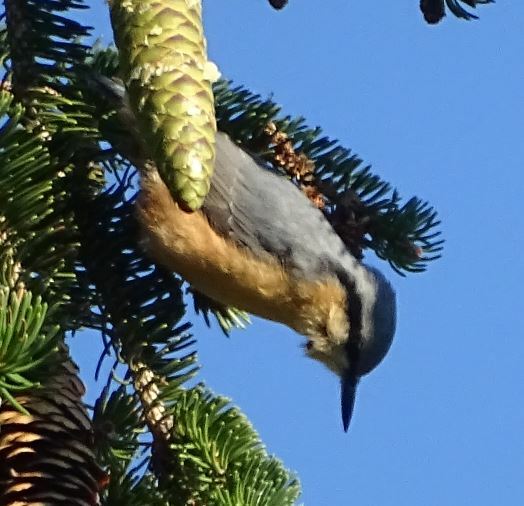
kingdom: Animalia
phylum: Chordata
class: Aves
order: Passeriformes
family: Sittidae
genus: Sitta
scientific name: Sitta europaea
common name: Eurasian nuthatch
